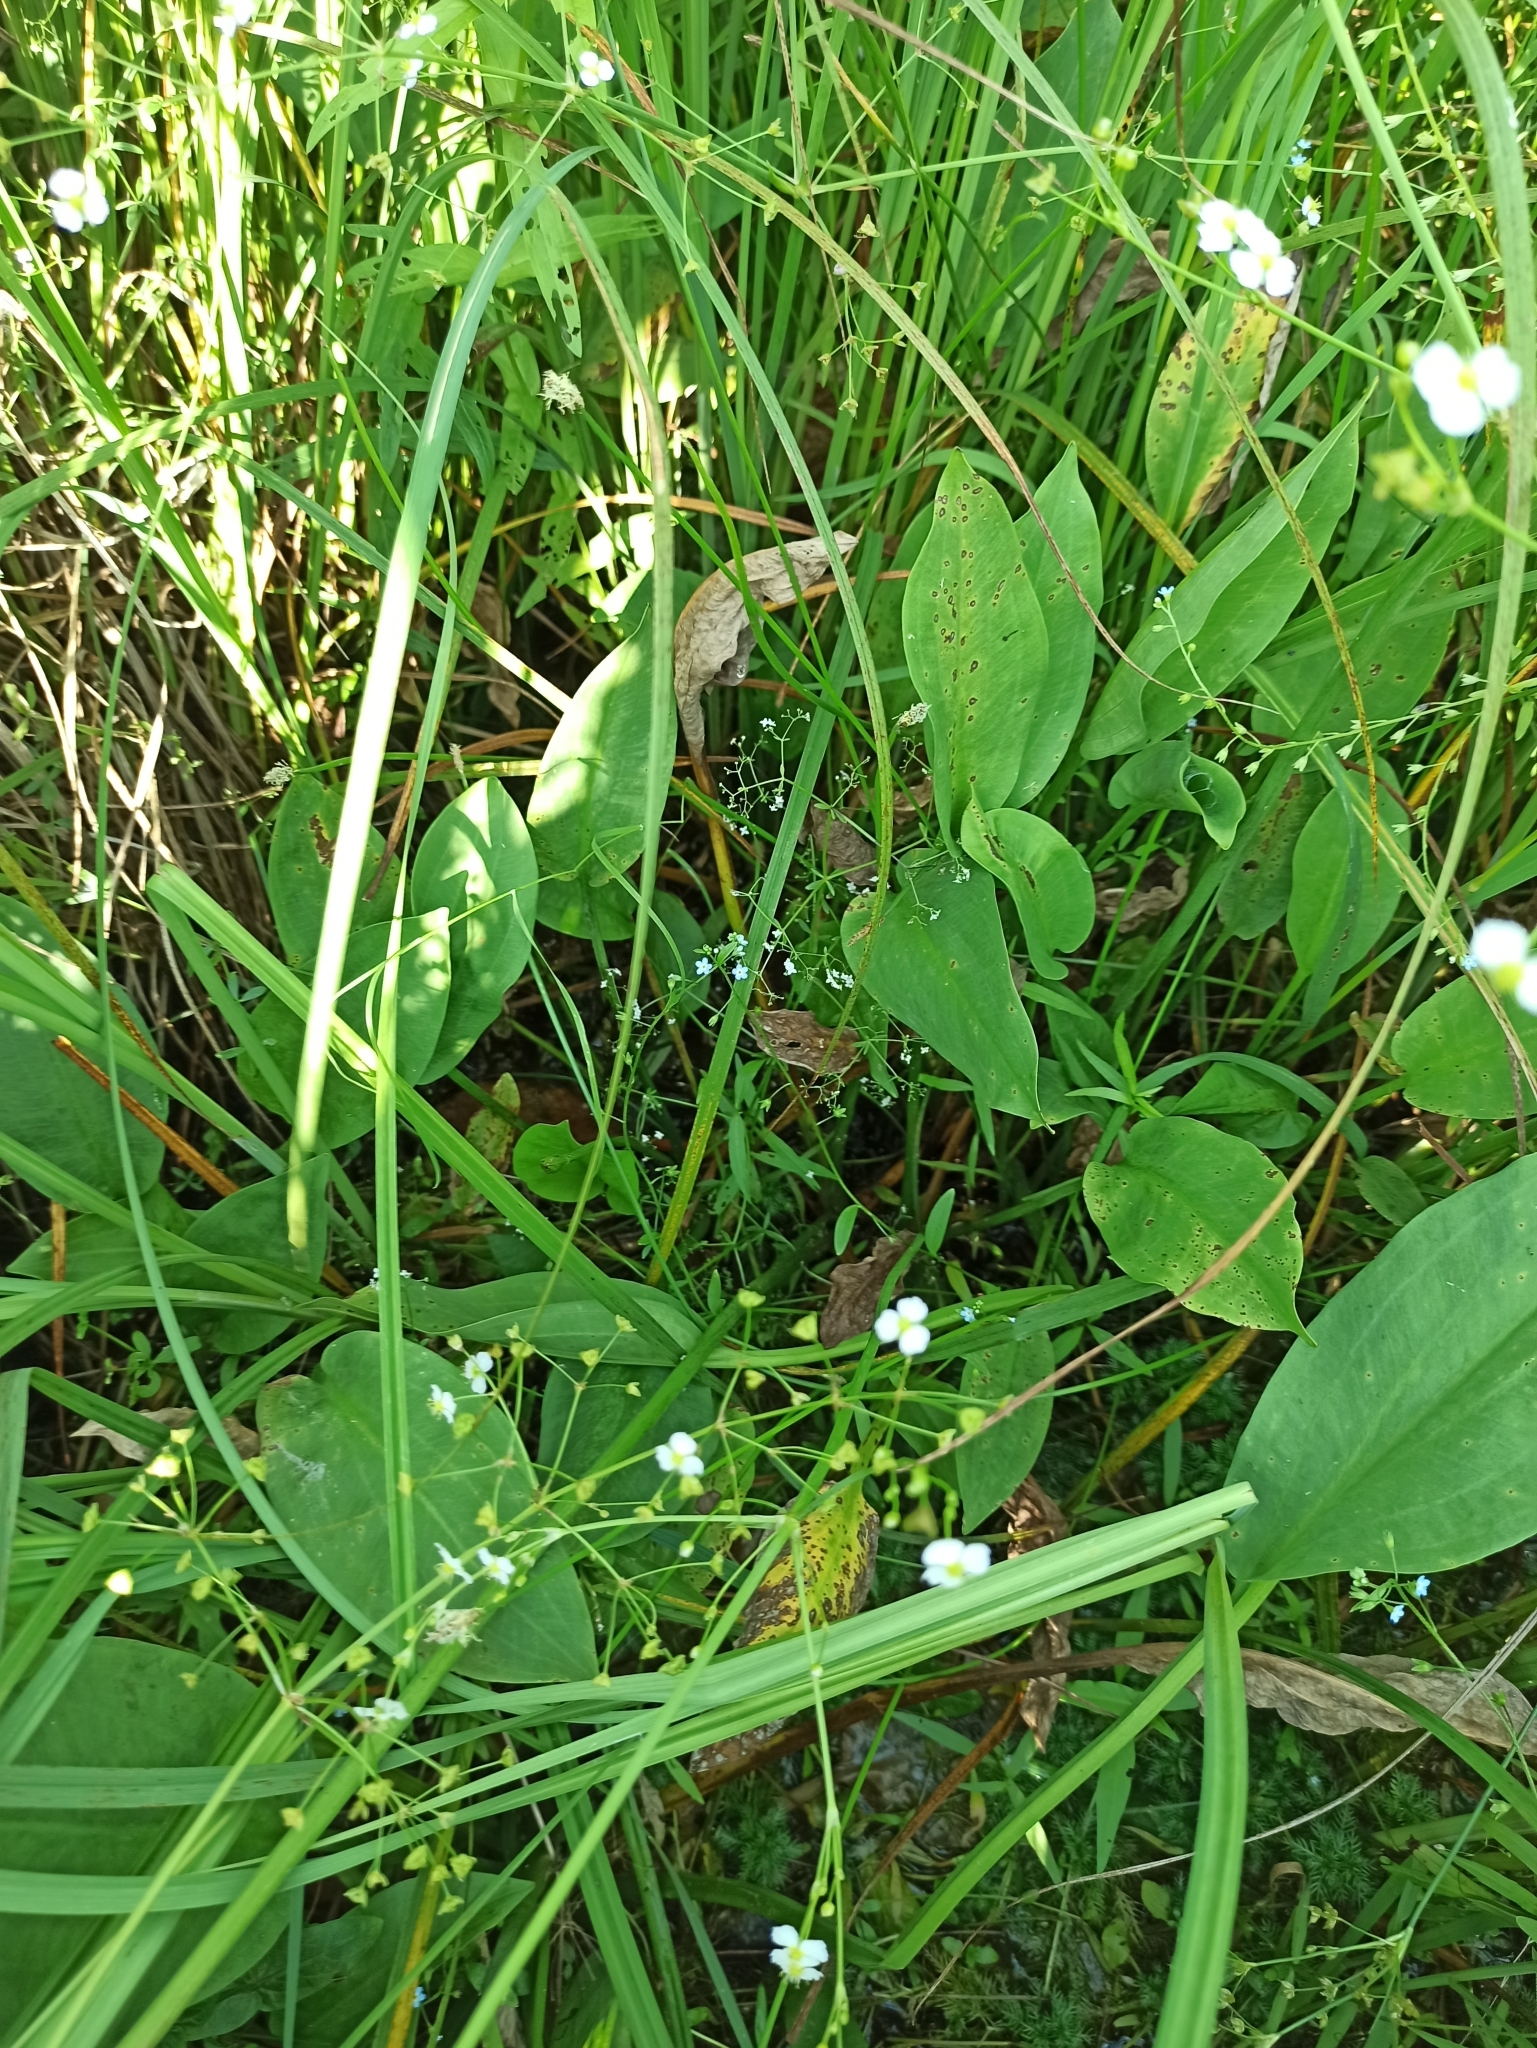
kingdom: Plantae
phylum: Tracheophyta
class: Liliopsida
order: Alismatales
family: Alismataceae
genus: Alisma
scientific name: Alisma plantago-aquatica
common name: Water-plantain
